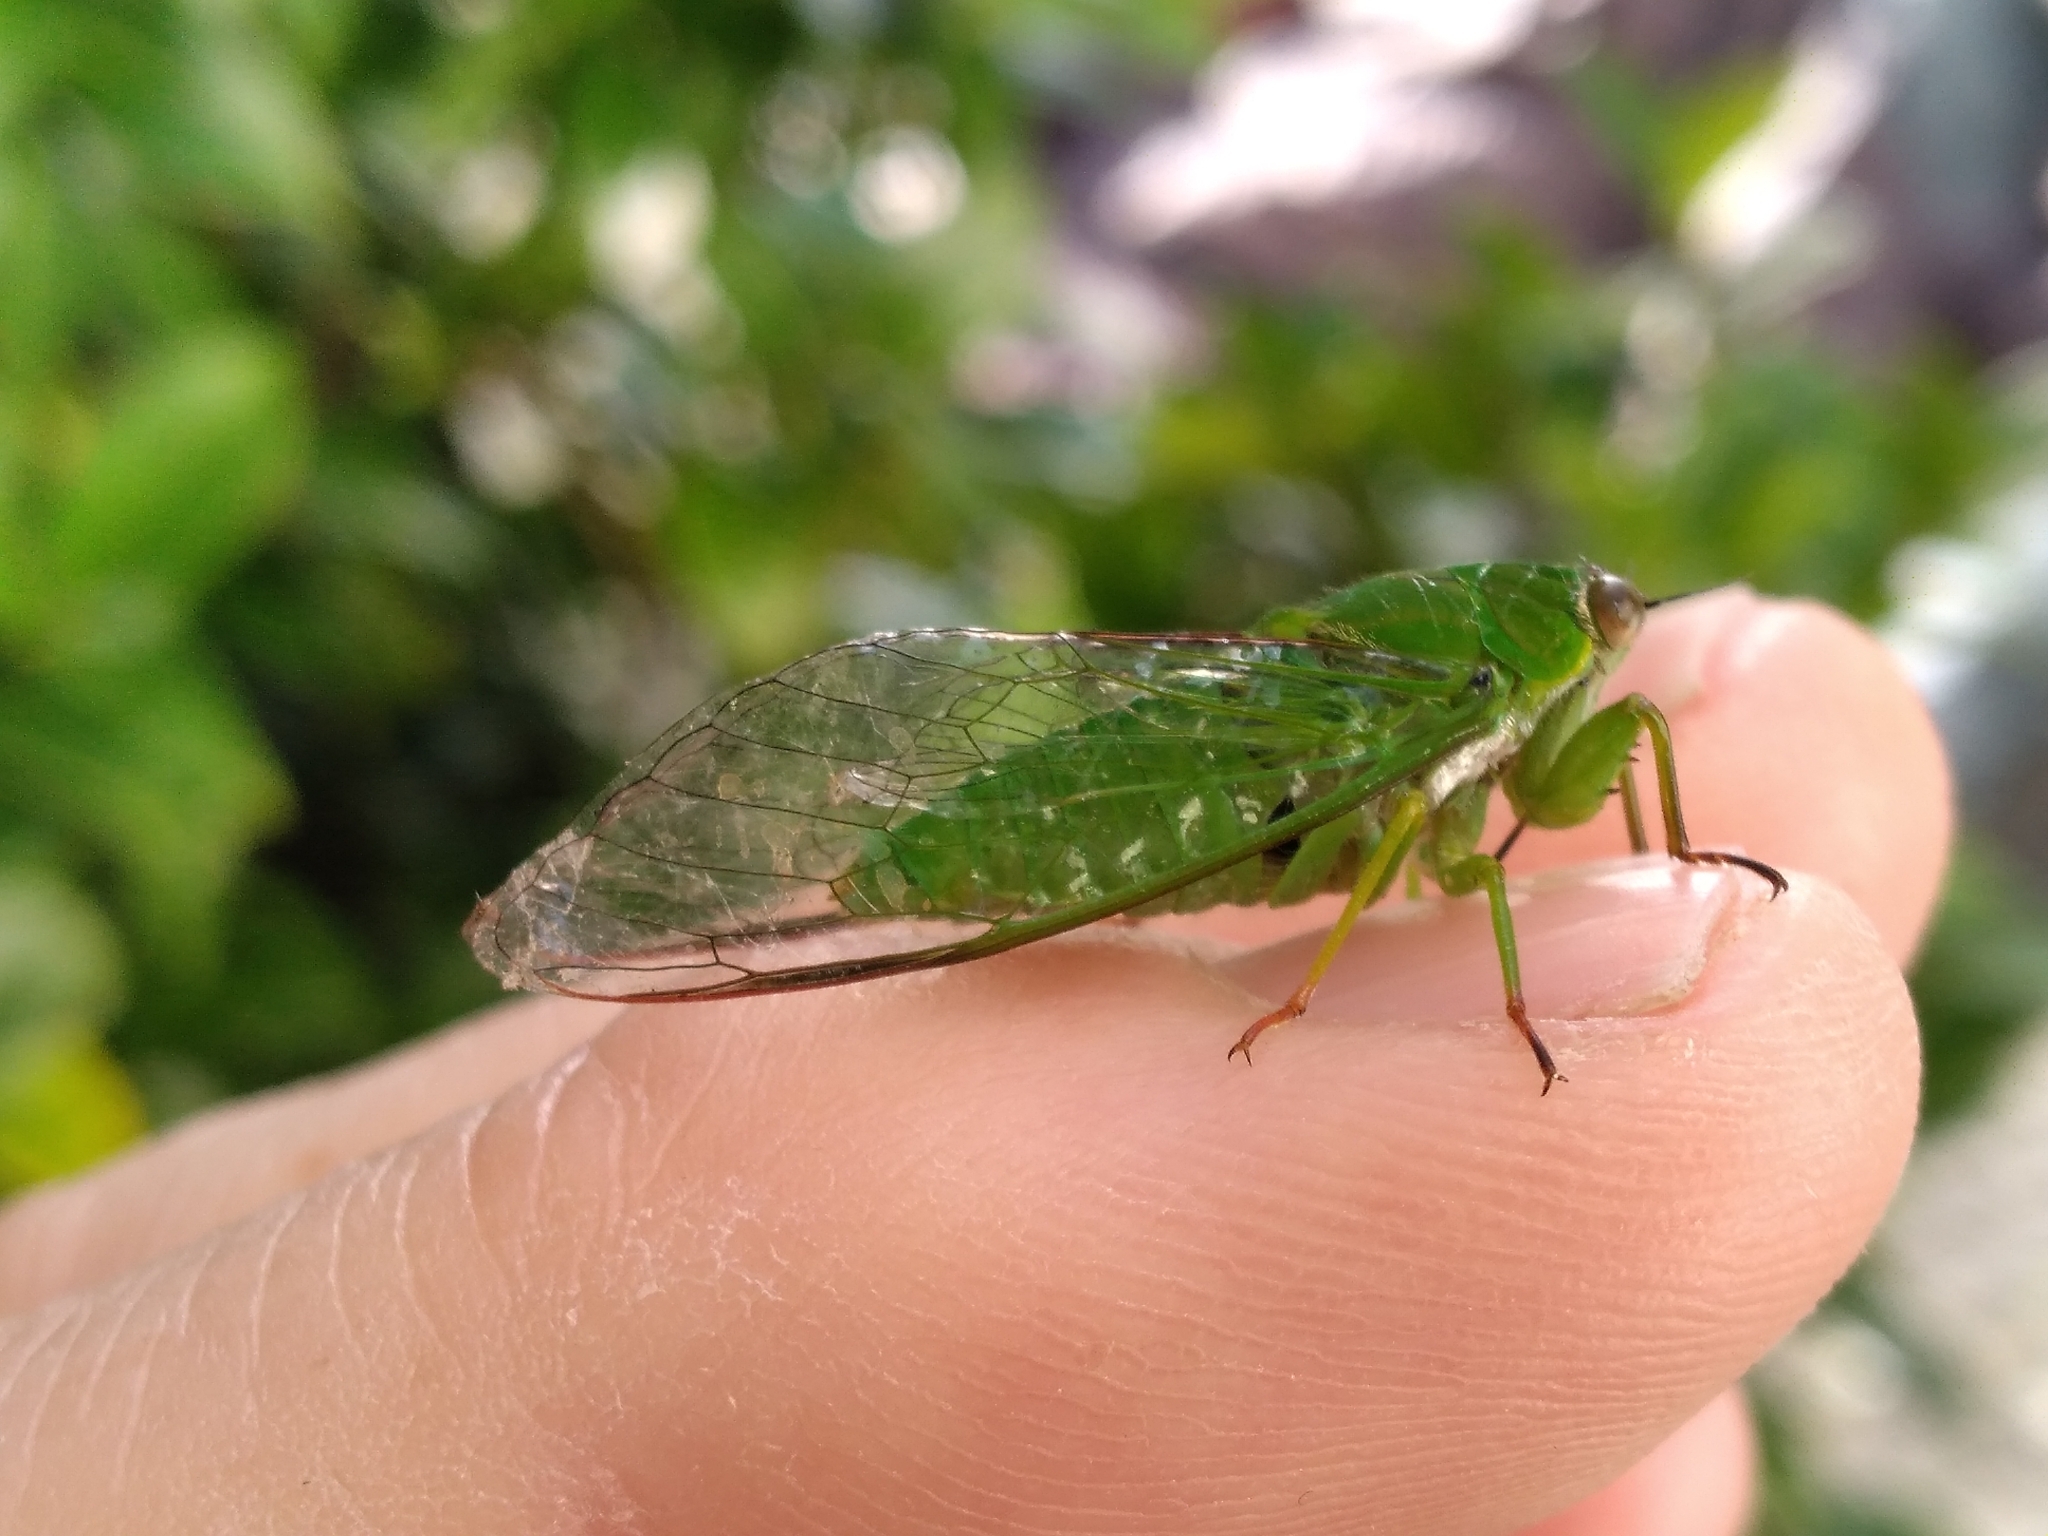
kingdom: Animalia
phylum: Arthropoda
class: Insecta
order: Hemiptera
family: Cicadidae
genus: Kikihia
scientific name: Kikihia ochrina
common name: April green cicada
